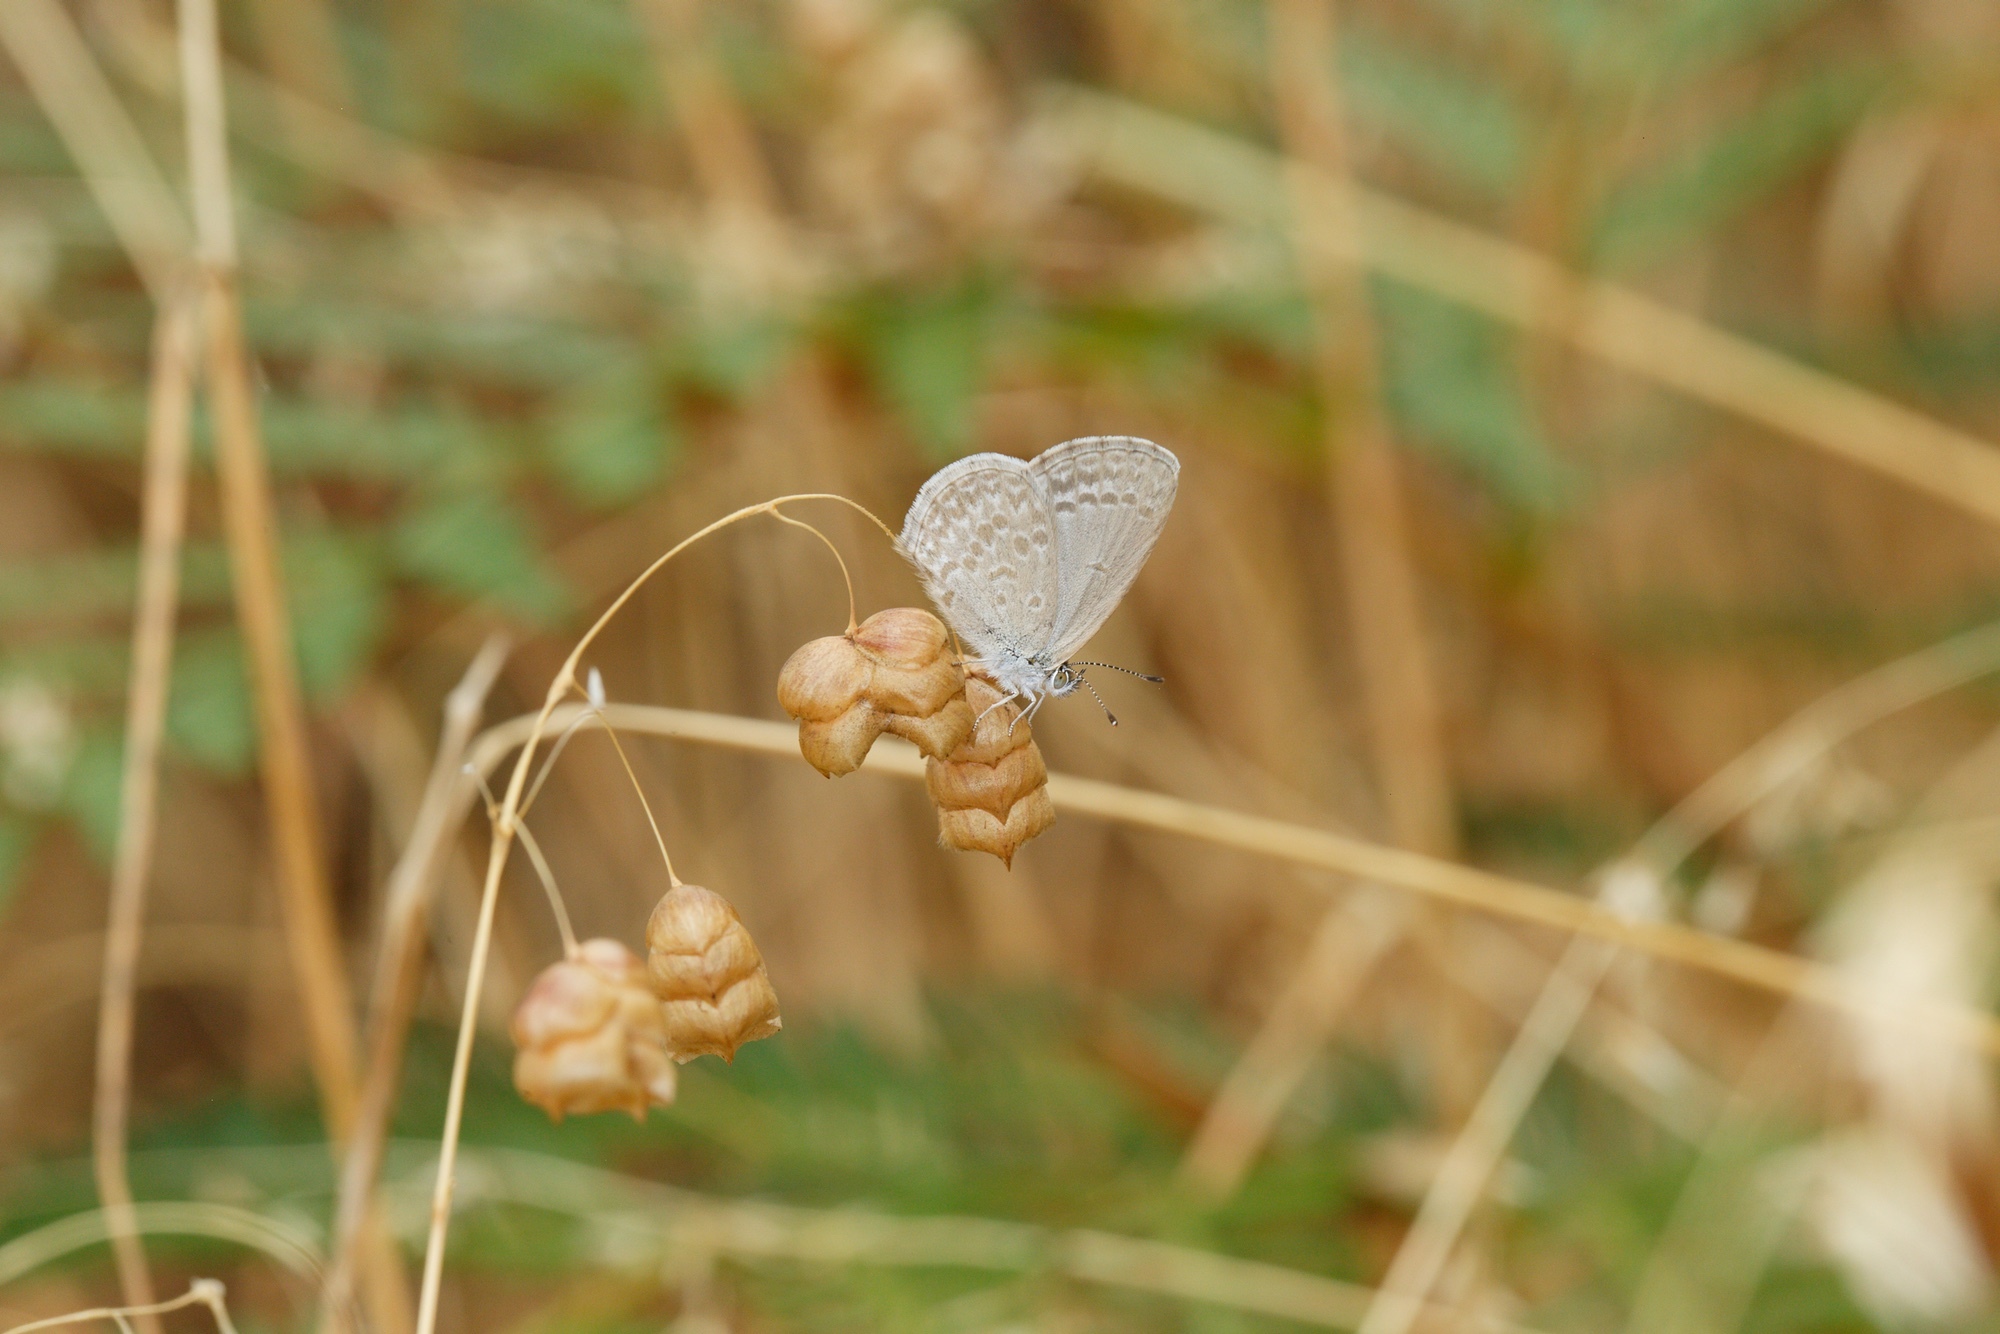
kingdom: Animalia
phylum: Arthropoda
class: Insecta
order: Lepidoptera
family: Lycaenidae
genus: Zizina
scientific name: Zizina labradus
